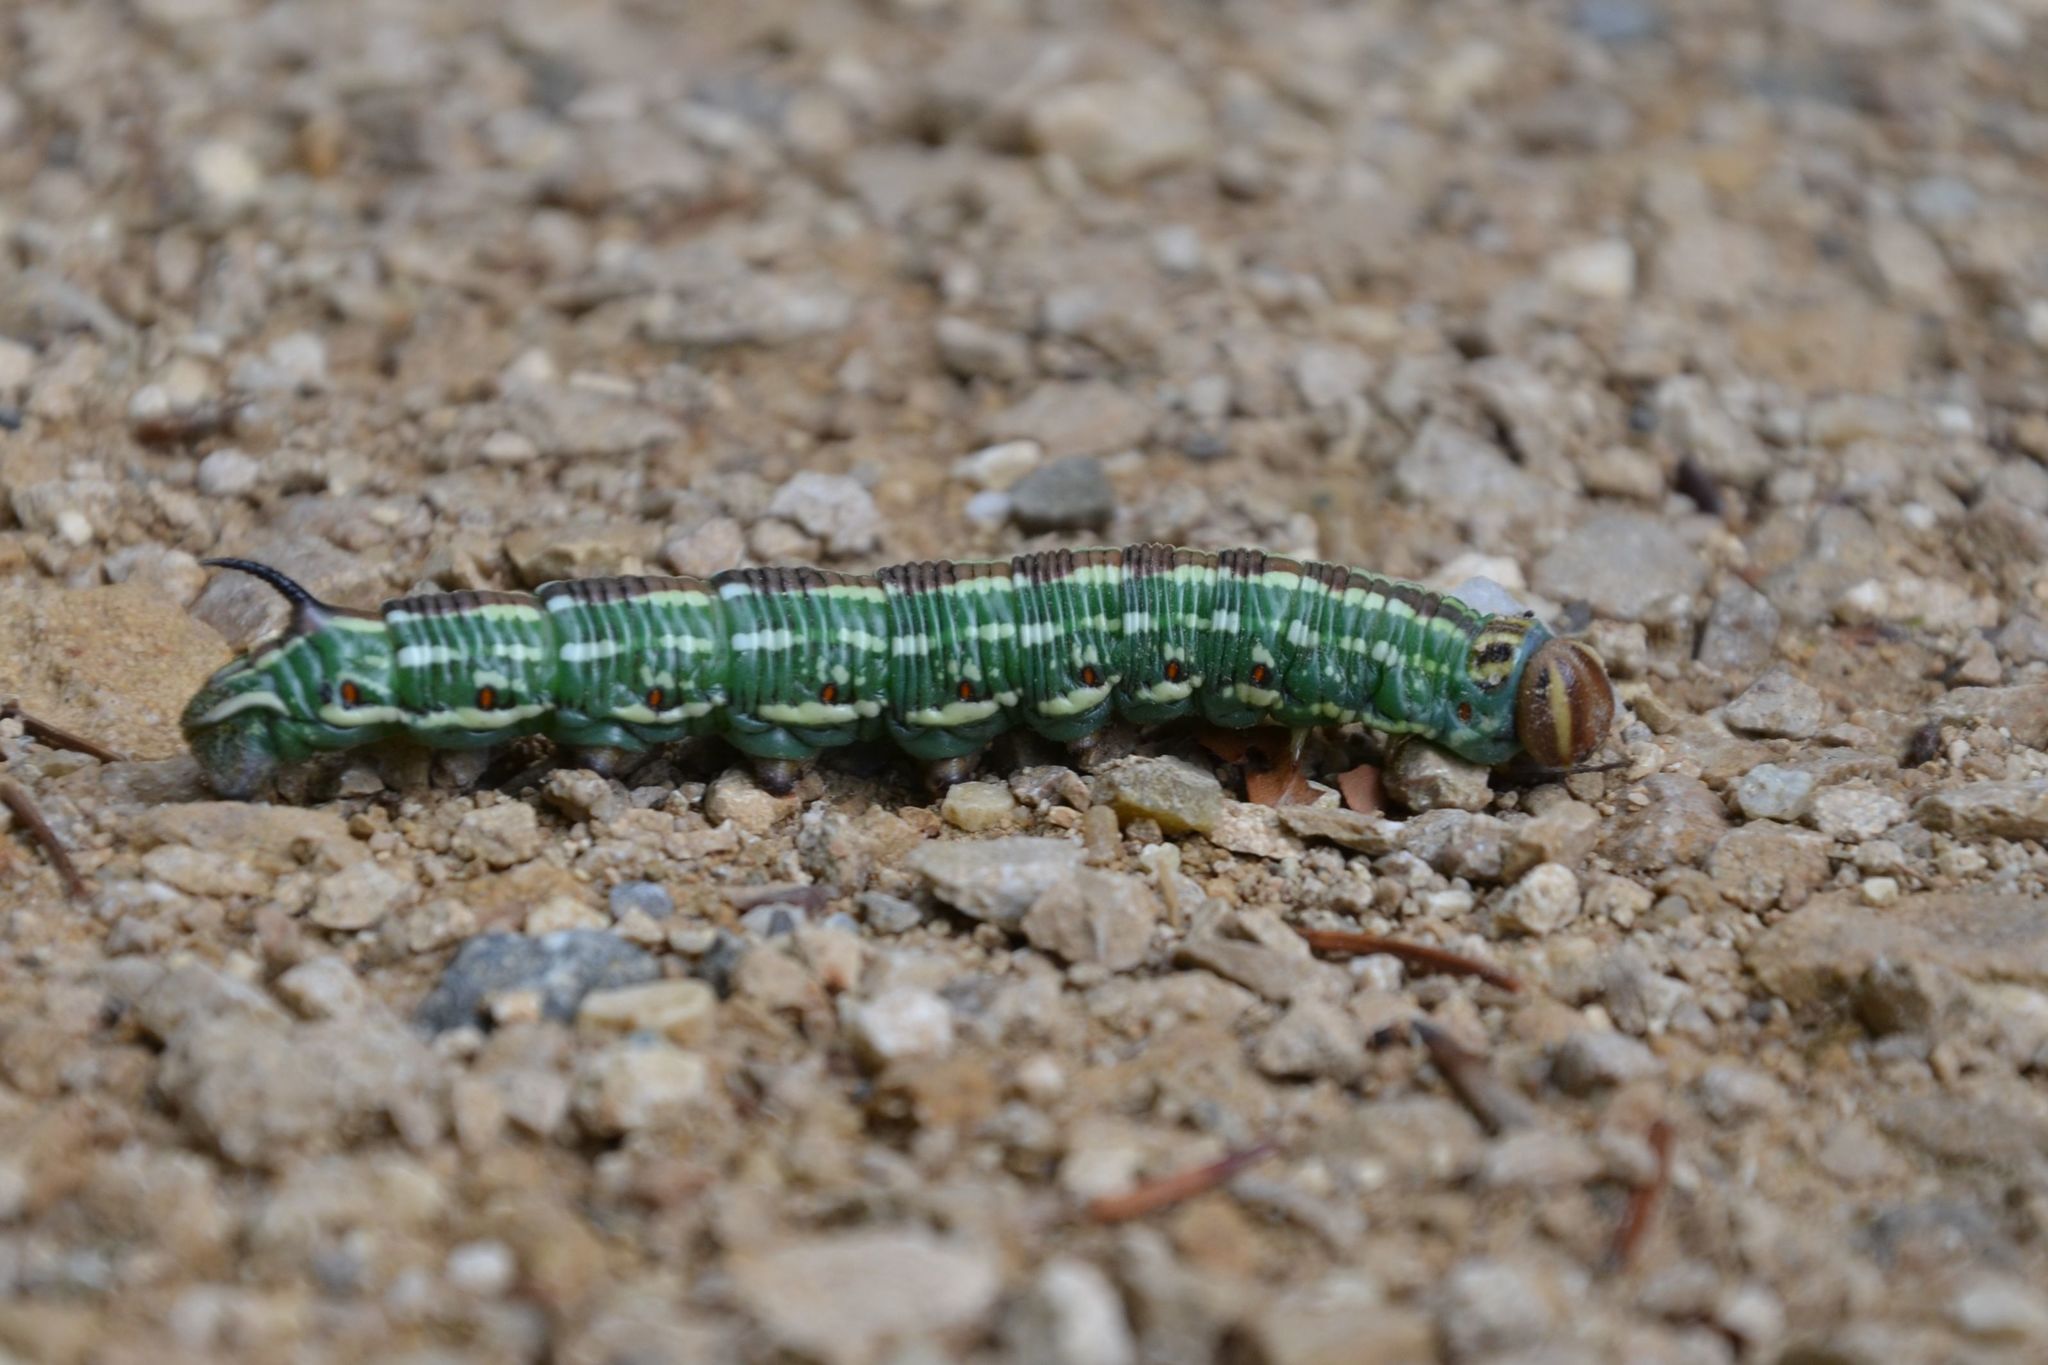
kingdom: Animalia
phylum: Arthropoda
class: Insecta
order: Lepidoptera
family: Sphingidae
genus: Sphinx
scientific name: Sphinx pinastri
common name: Pine hawk-moth
